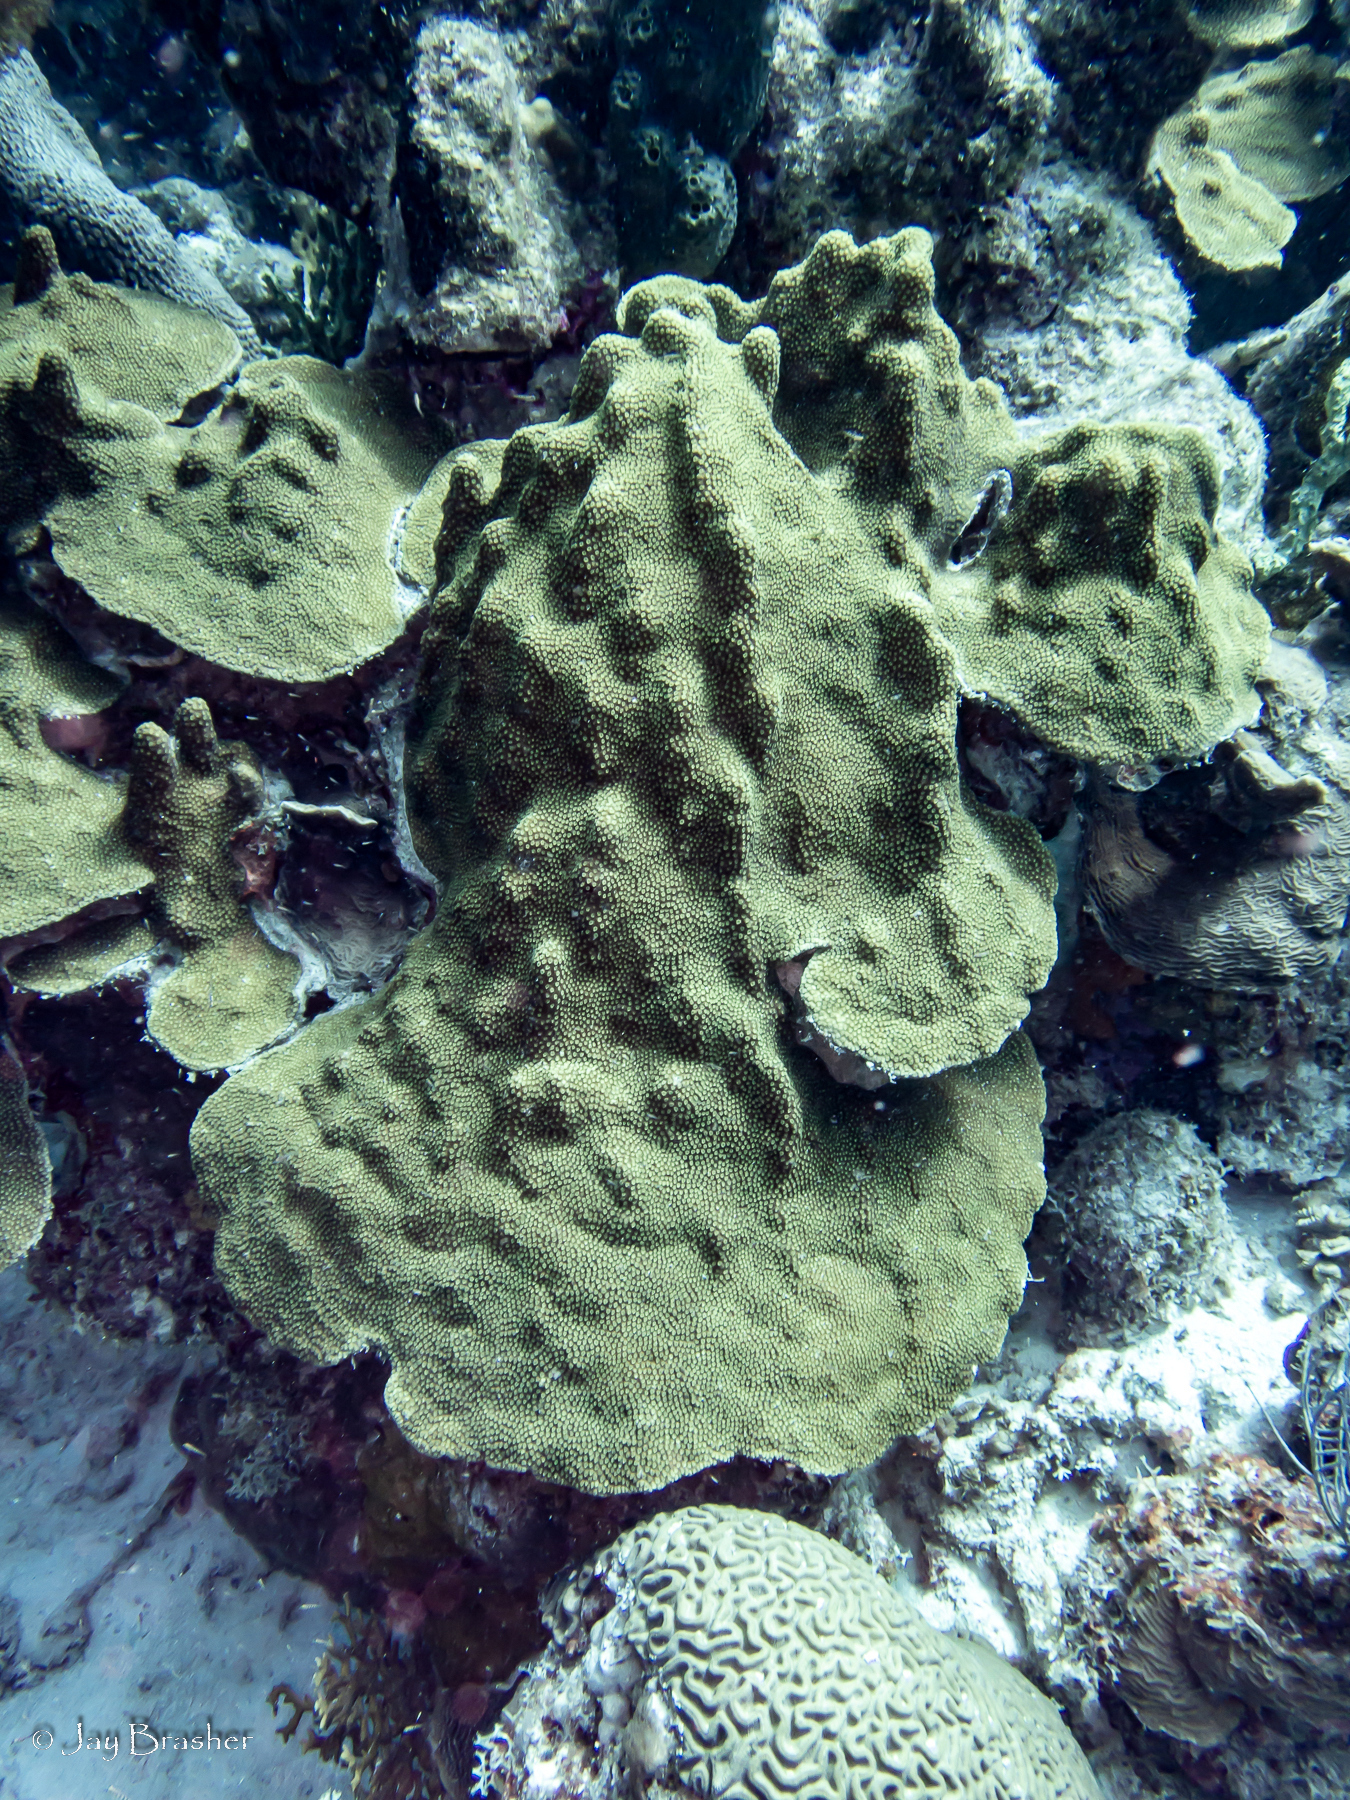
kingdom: Animalia
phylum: Cnidaria
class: Anthozoa
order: Scleractinia
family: Merulinidae
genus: Orbicella
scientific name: Orbicella faveolata
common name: Mountainous star coral
